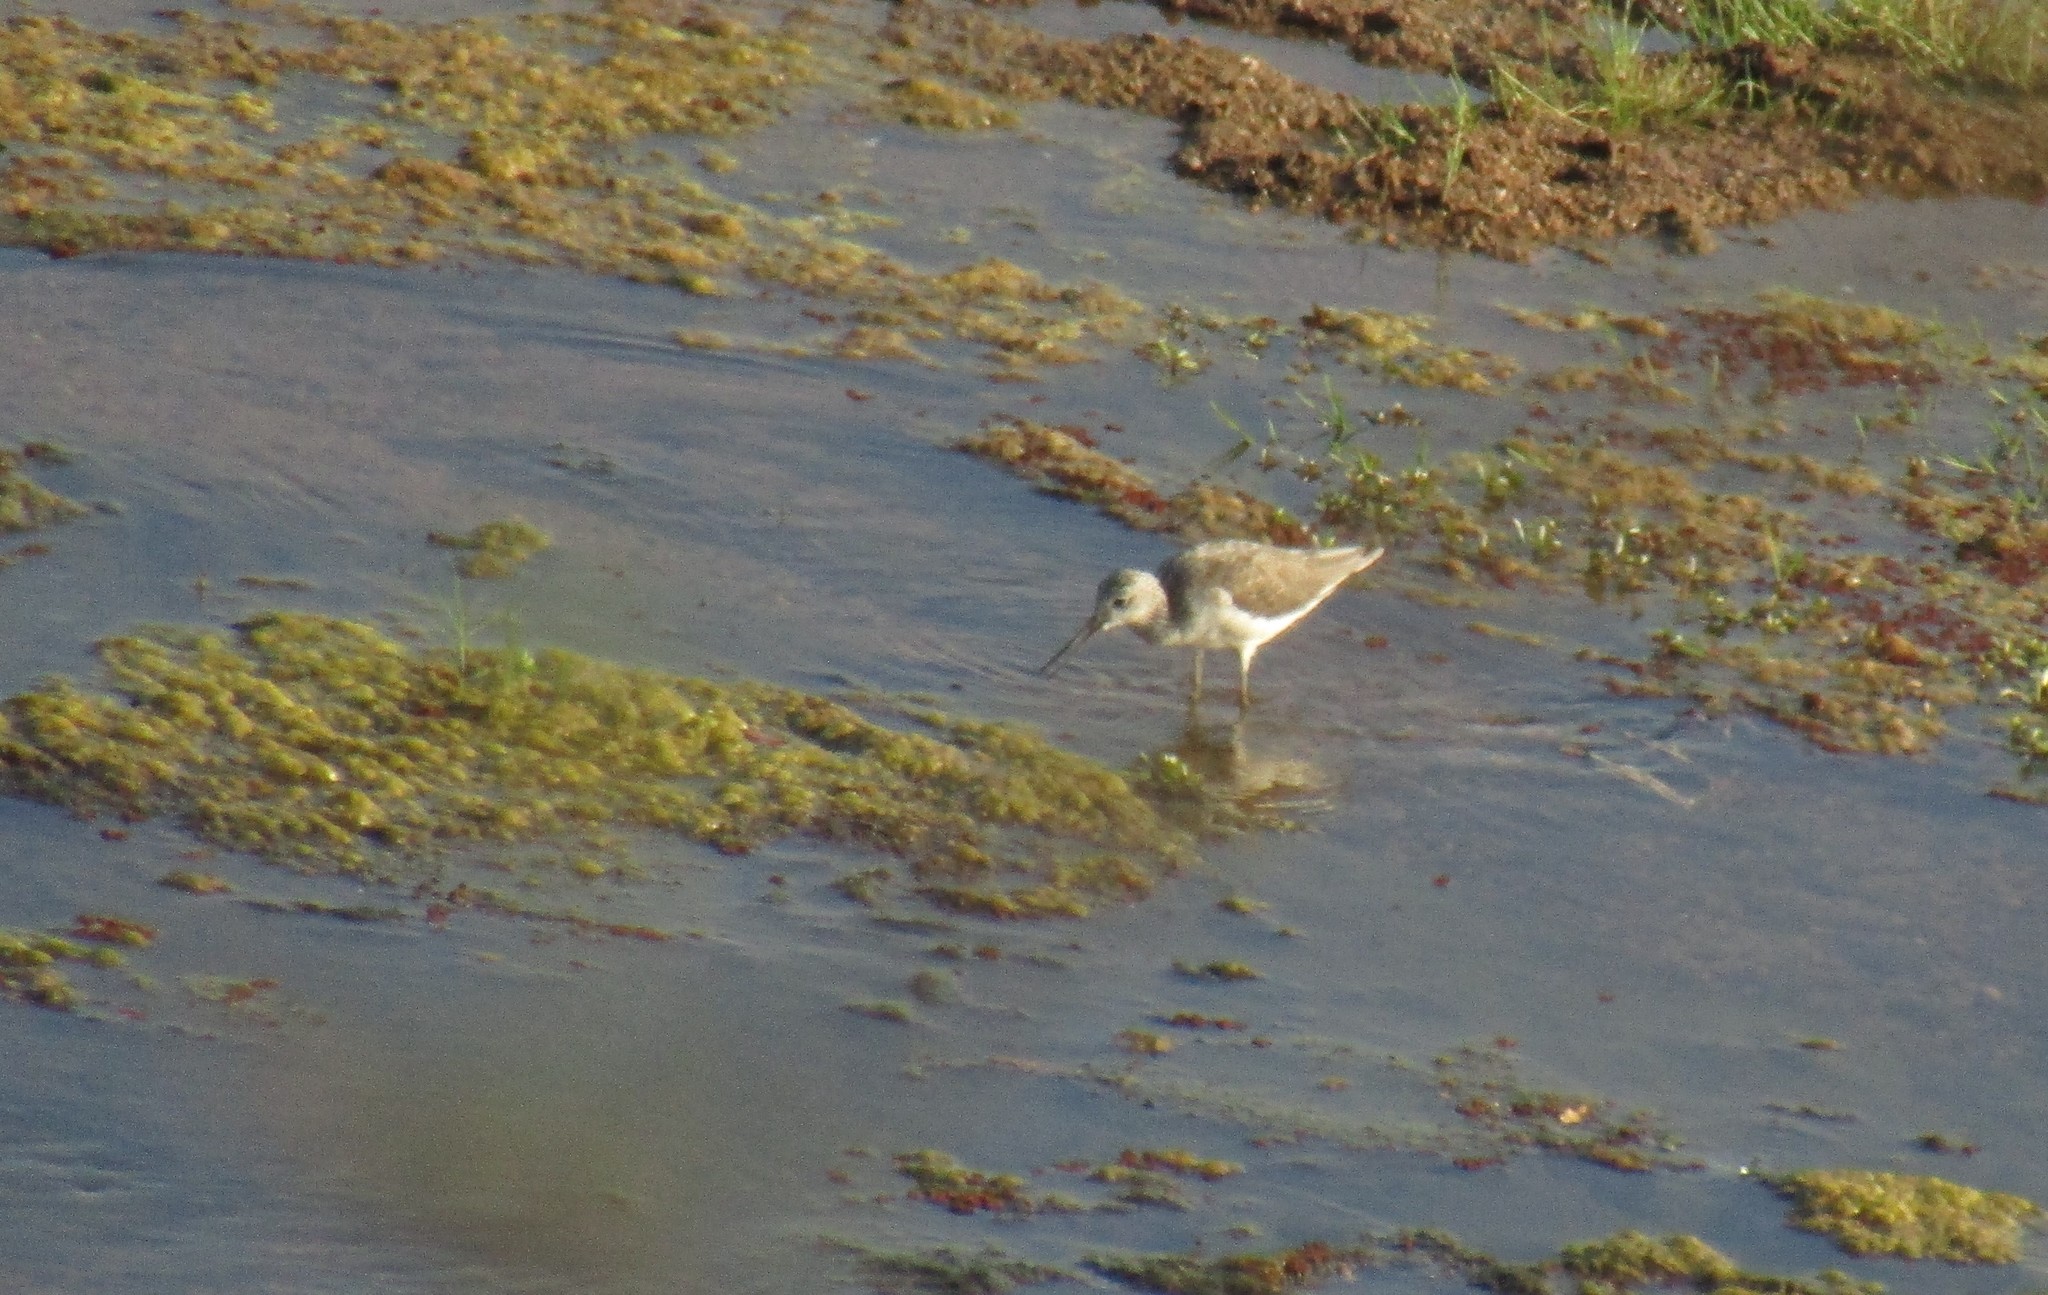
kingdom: Animalia
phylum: Chordata
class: Aves
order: Charadriiformes
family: Scolopacidae
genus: Tringa
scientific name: Tringa nebularia
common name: Common greenshank
